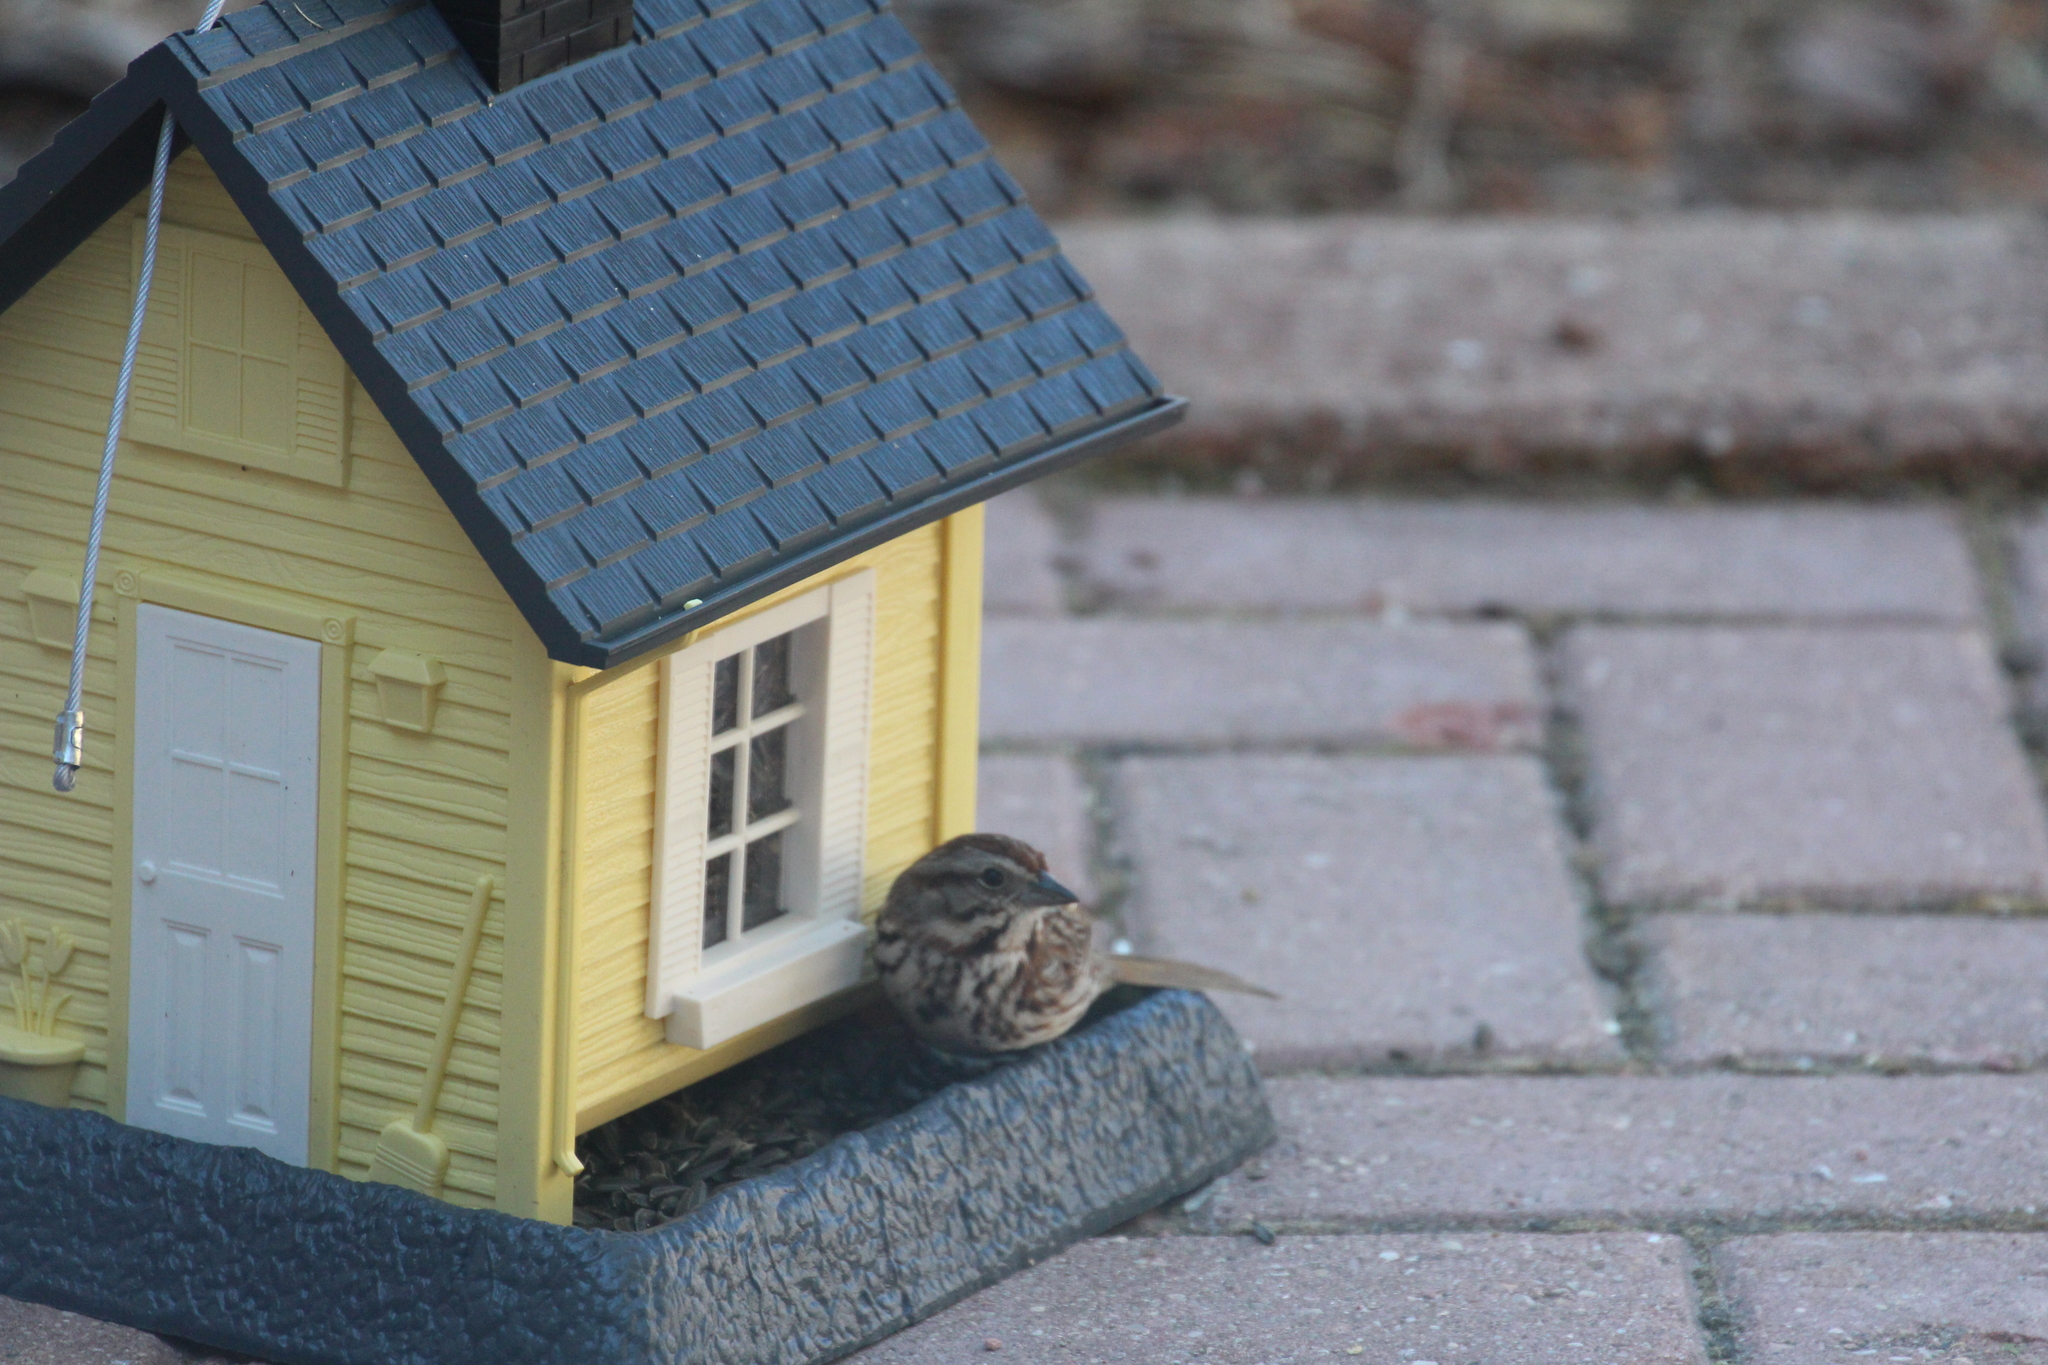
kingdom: Animalia
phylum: Chordata
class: Aves
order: Passeriformes
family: Passerellidae
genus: Melospiza
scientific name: Melospiza melodia
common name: Song sparrow
